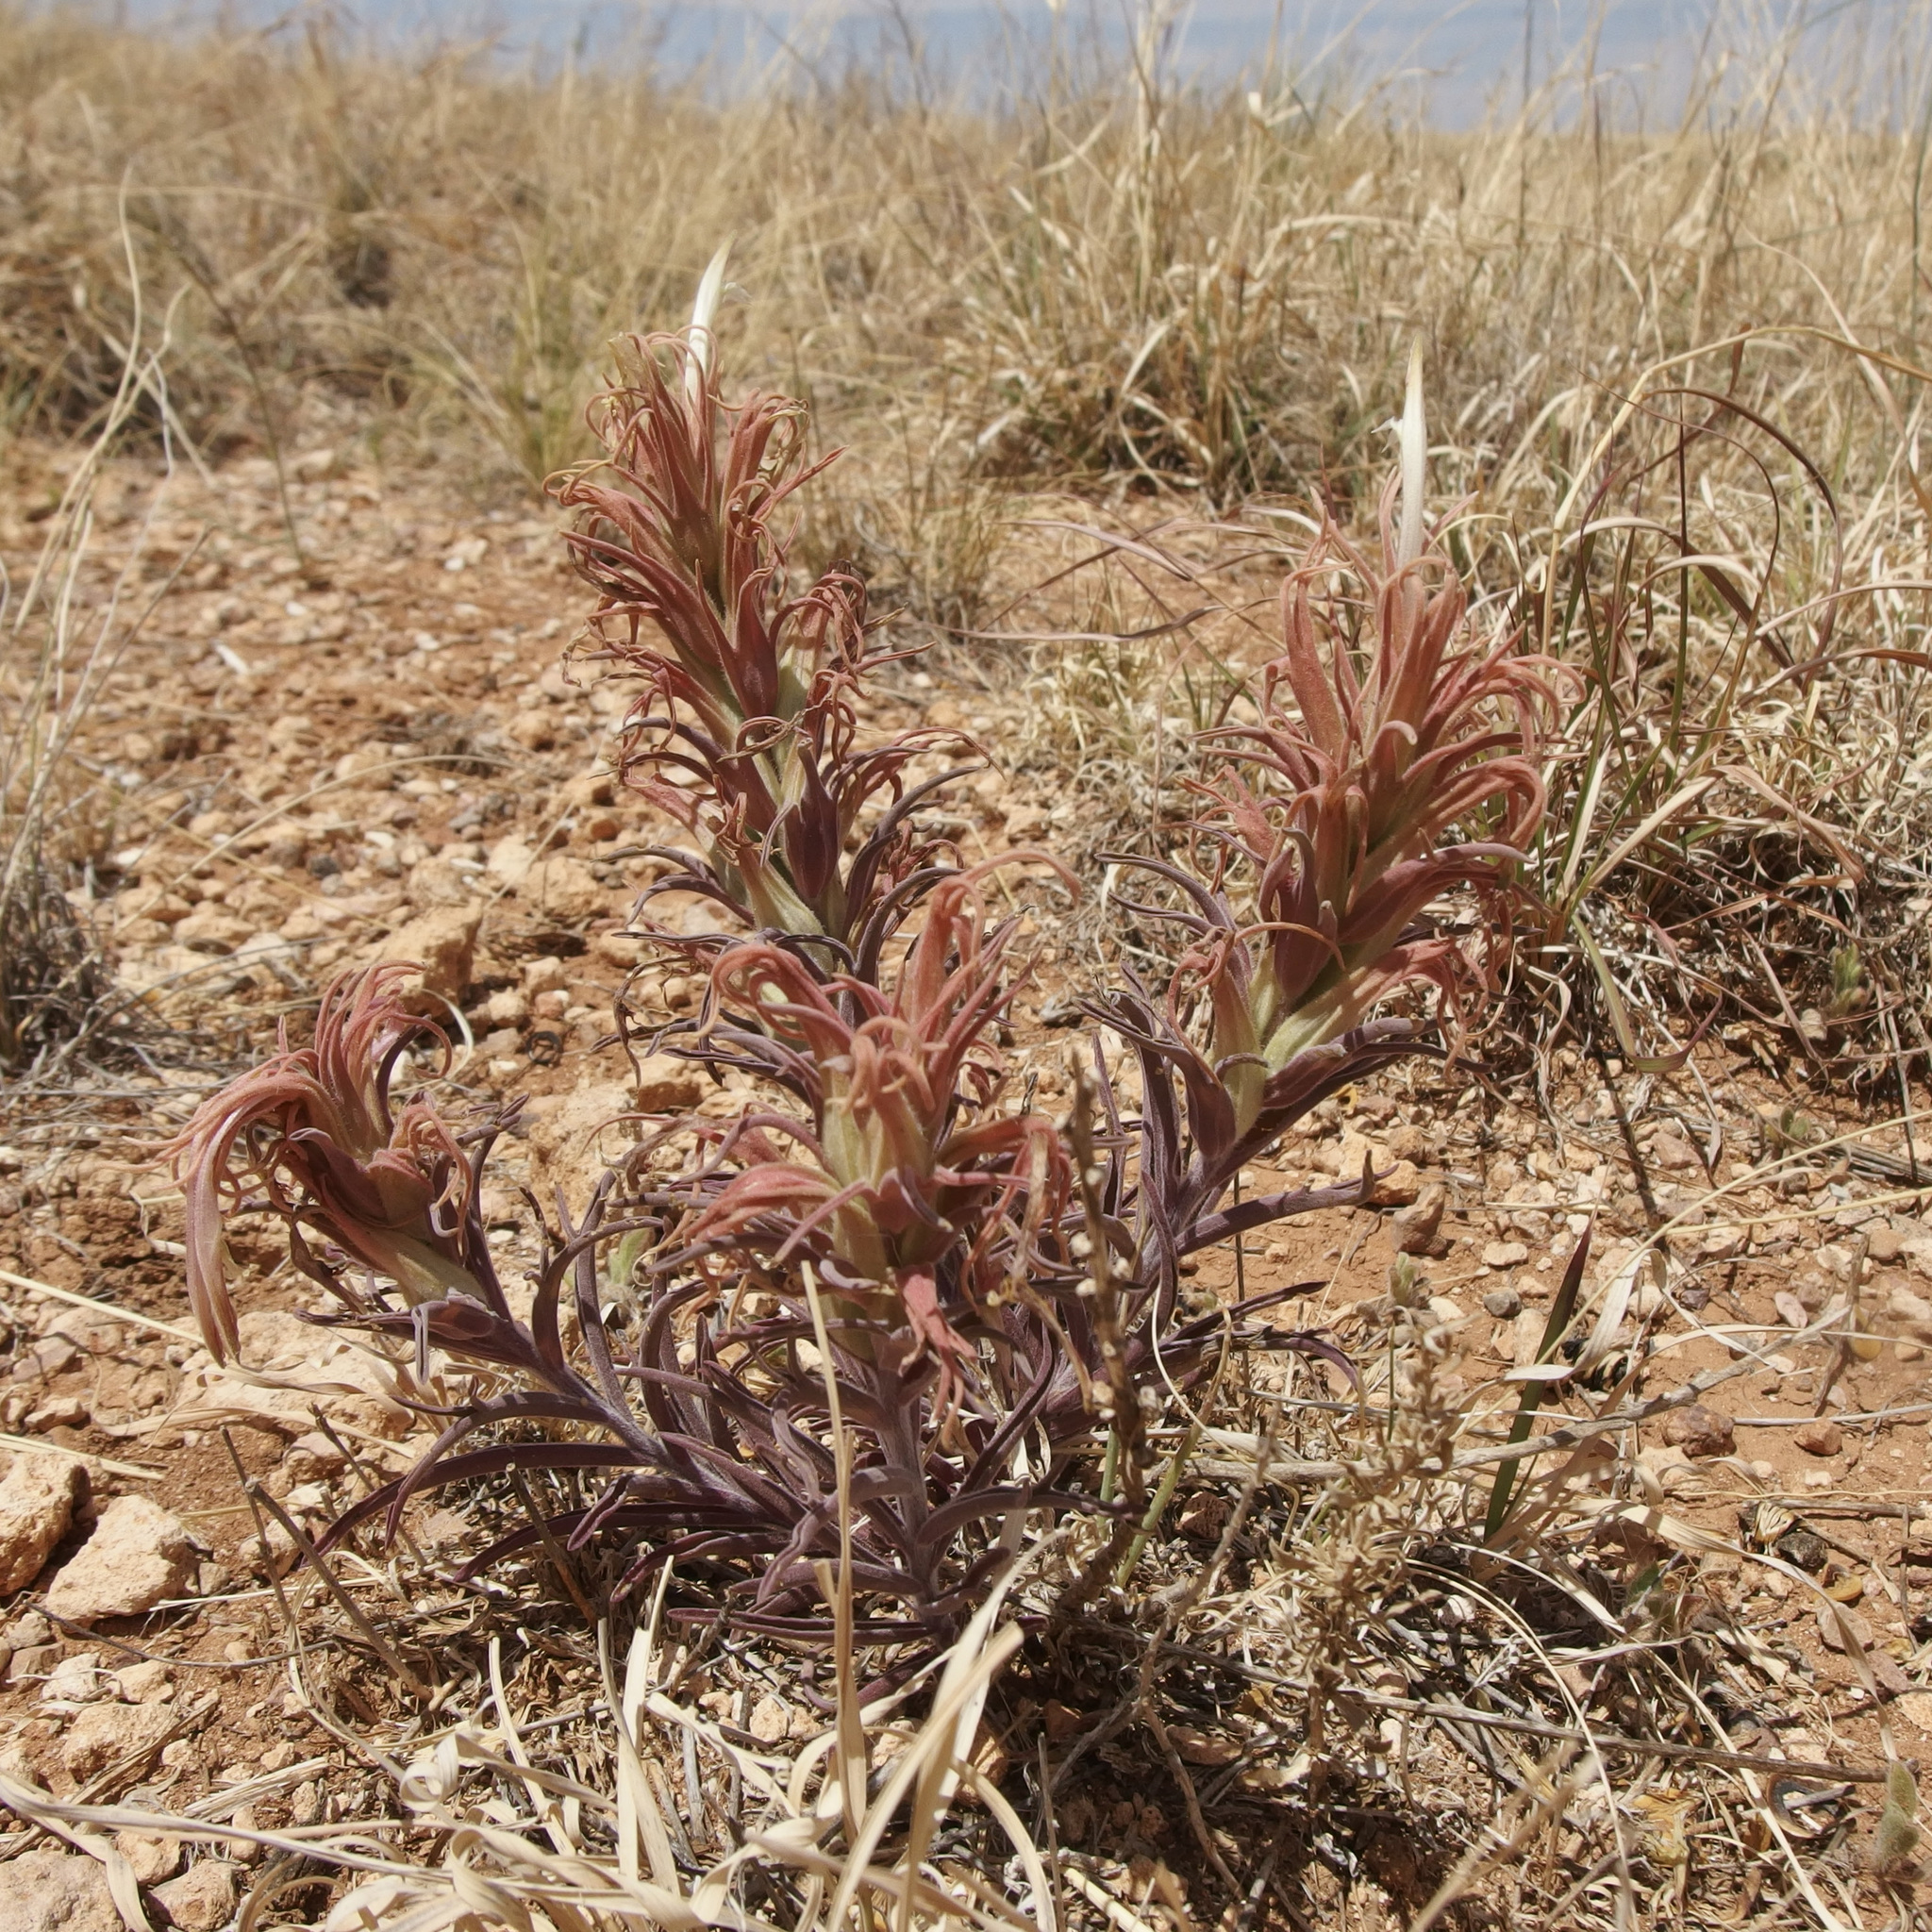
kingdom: Plantae
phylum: Tracheophyta
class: Magnoliopsida
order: Lamiales
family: Orobanchaceae
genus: Castilleja
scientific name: Castilleja sessiliflora
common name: Downy paintbrush
